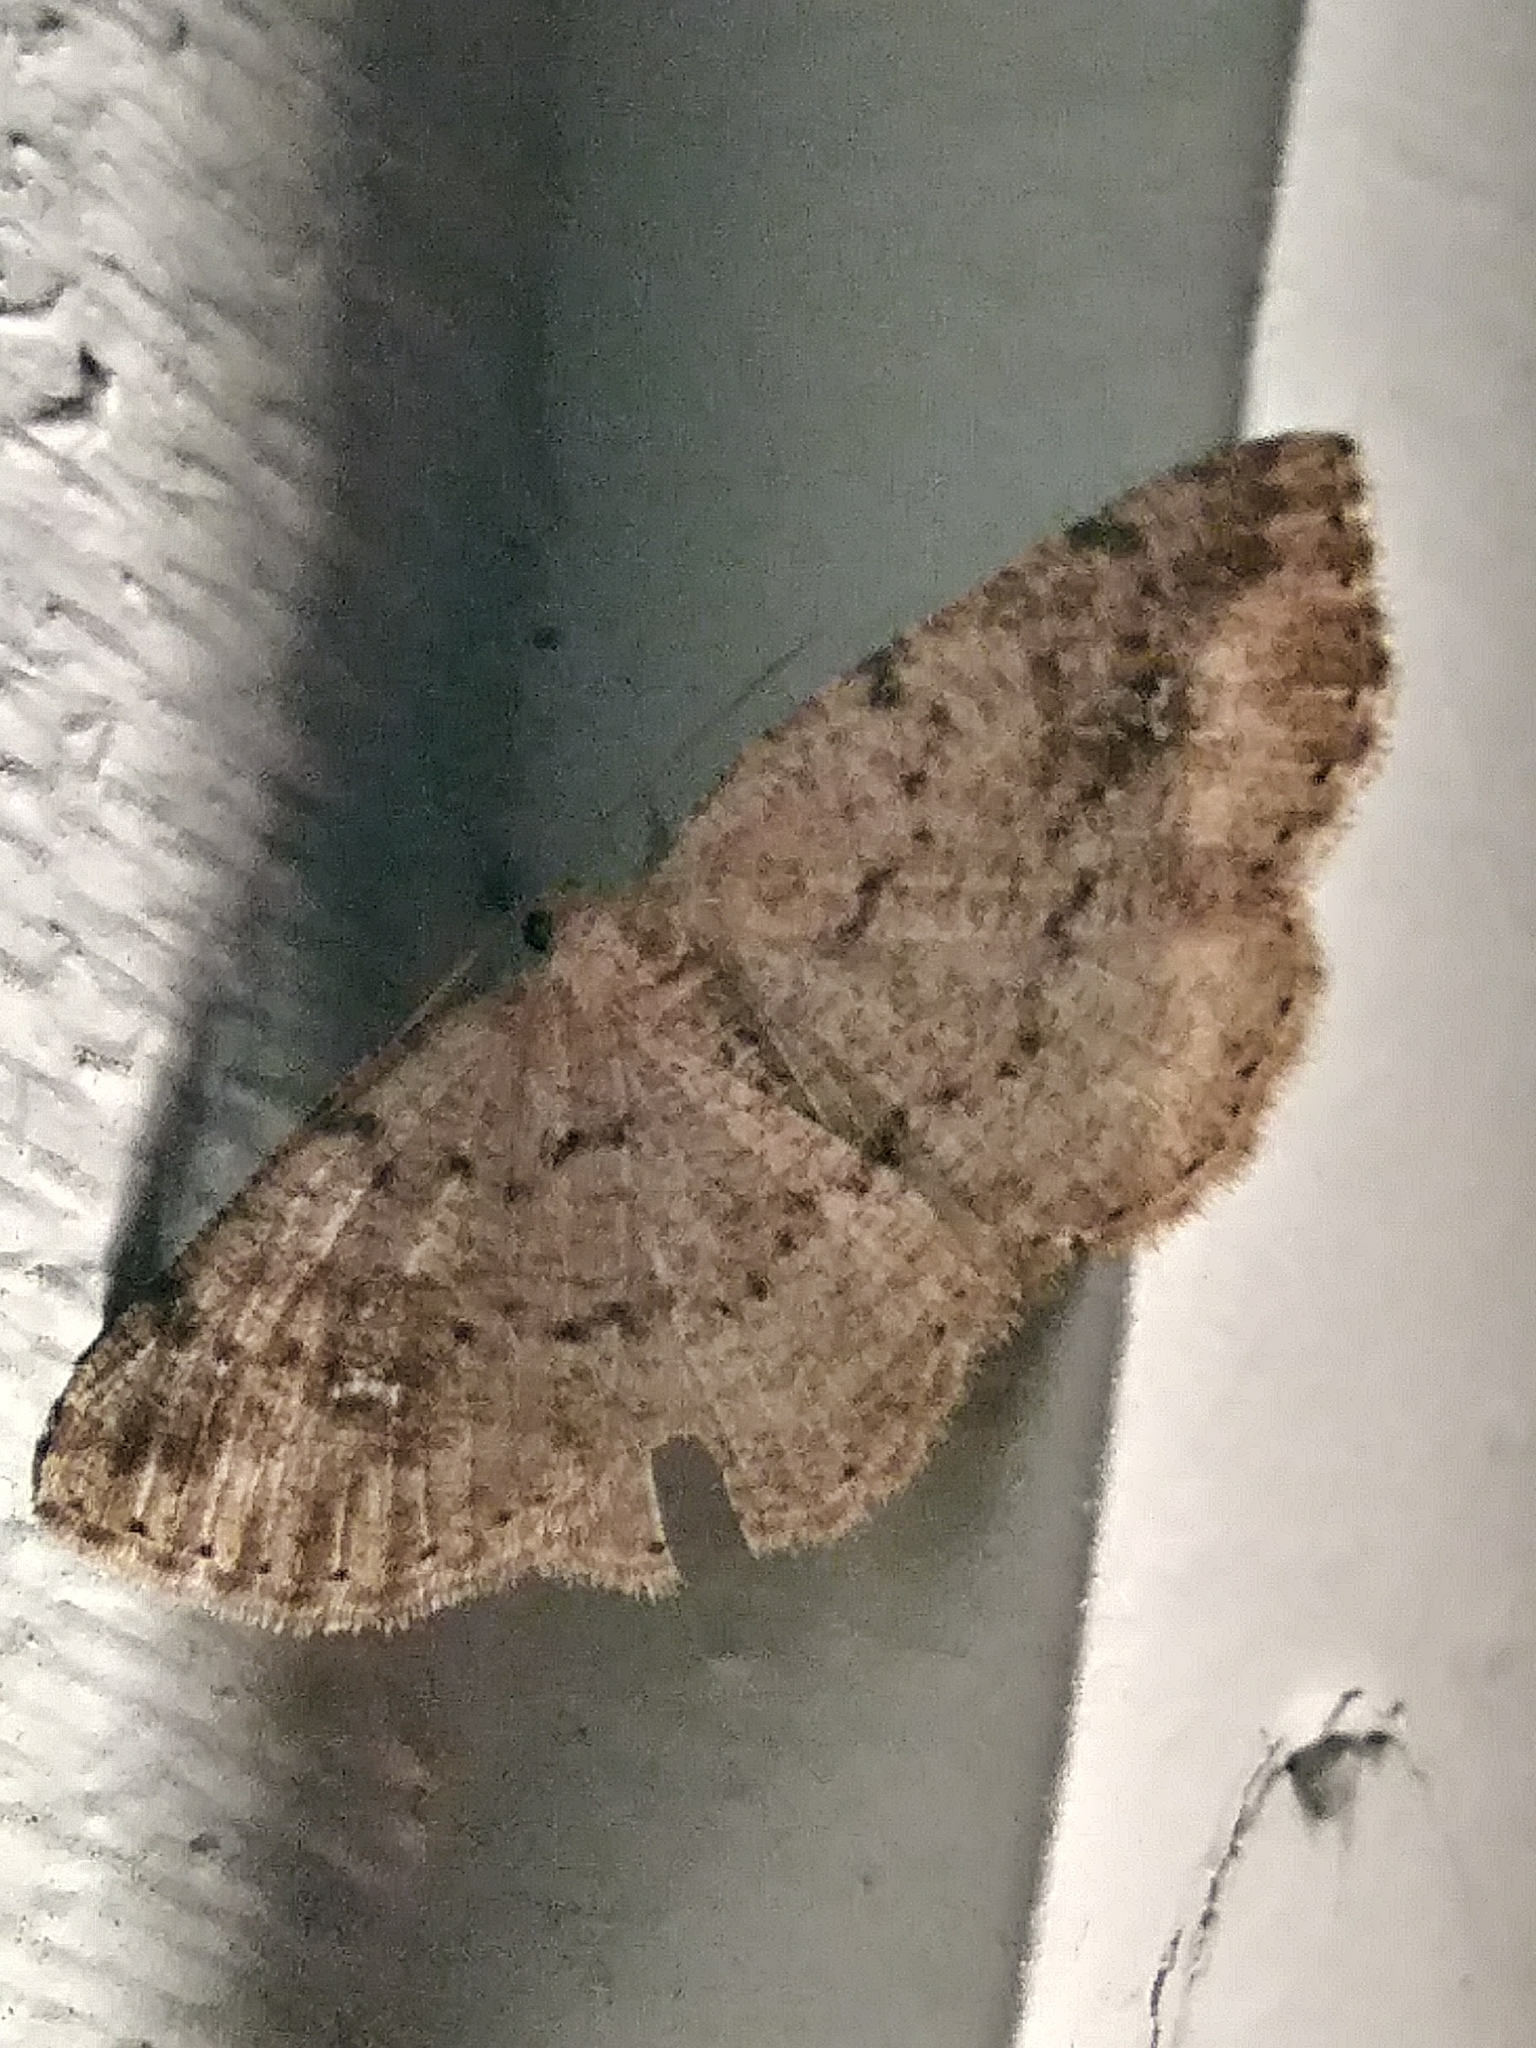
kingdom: Animalia
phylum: Arthropoda
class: Insecta
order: Lepidoptera
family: Geometridae
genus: Homochlodes
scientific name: Homochlodes fritillaria
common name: Pale homochlodes
